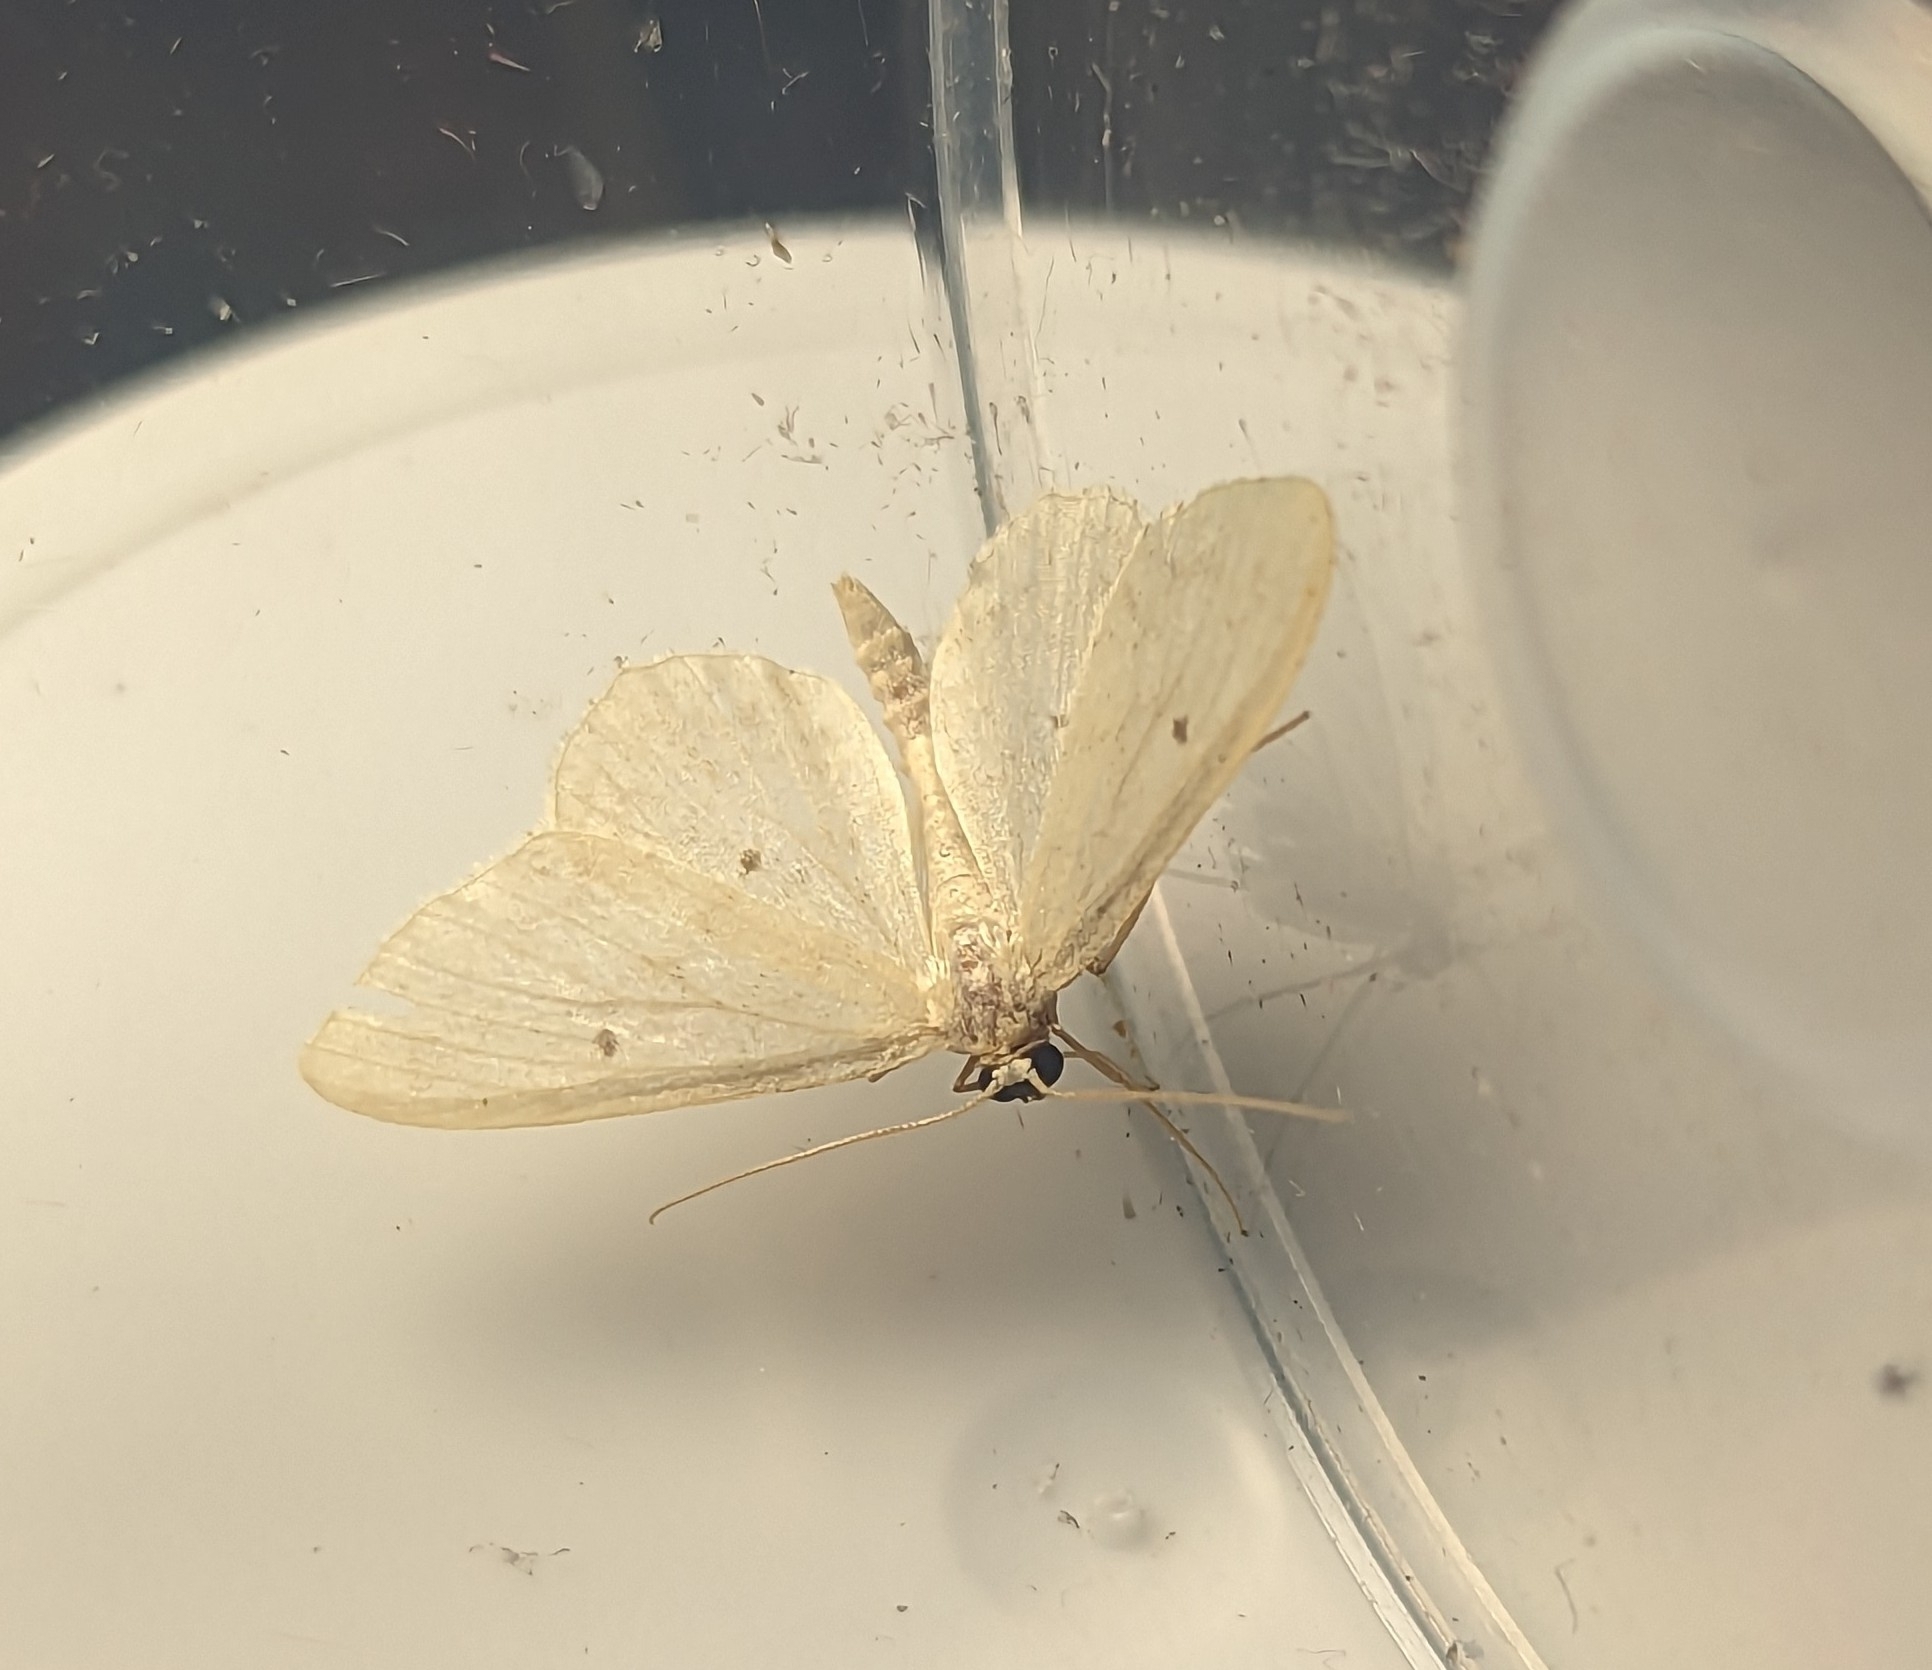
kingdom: Animalia
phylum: Arthropoda
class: Insecta
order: Lepidoptera
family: Geometridae
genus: Idaea
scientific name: Idaea biselata
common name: Small fan-footed wave
